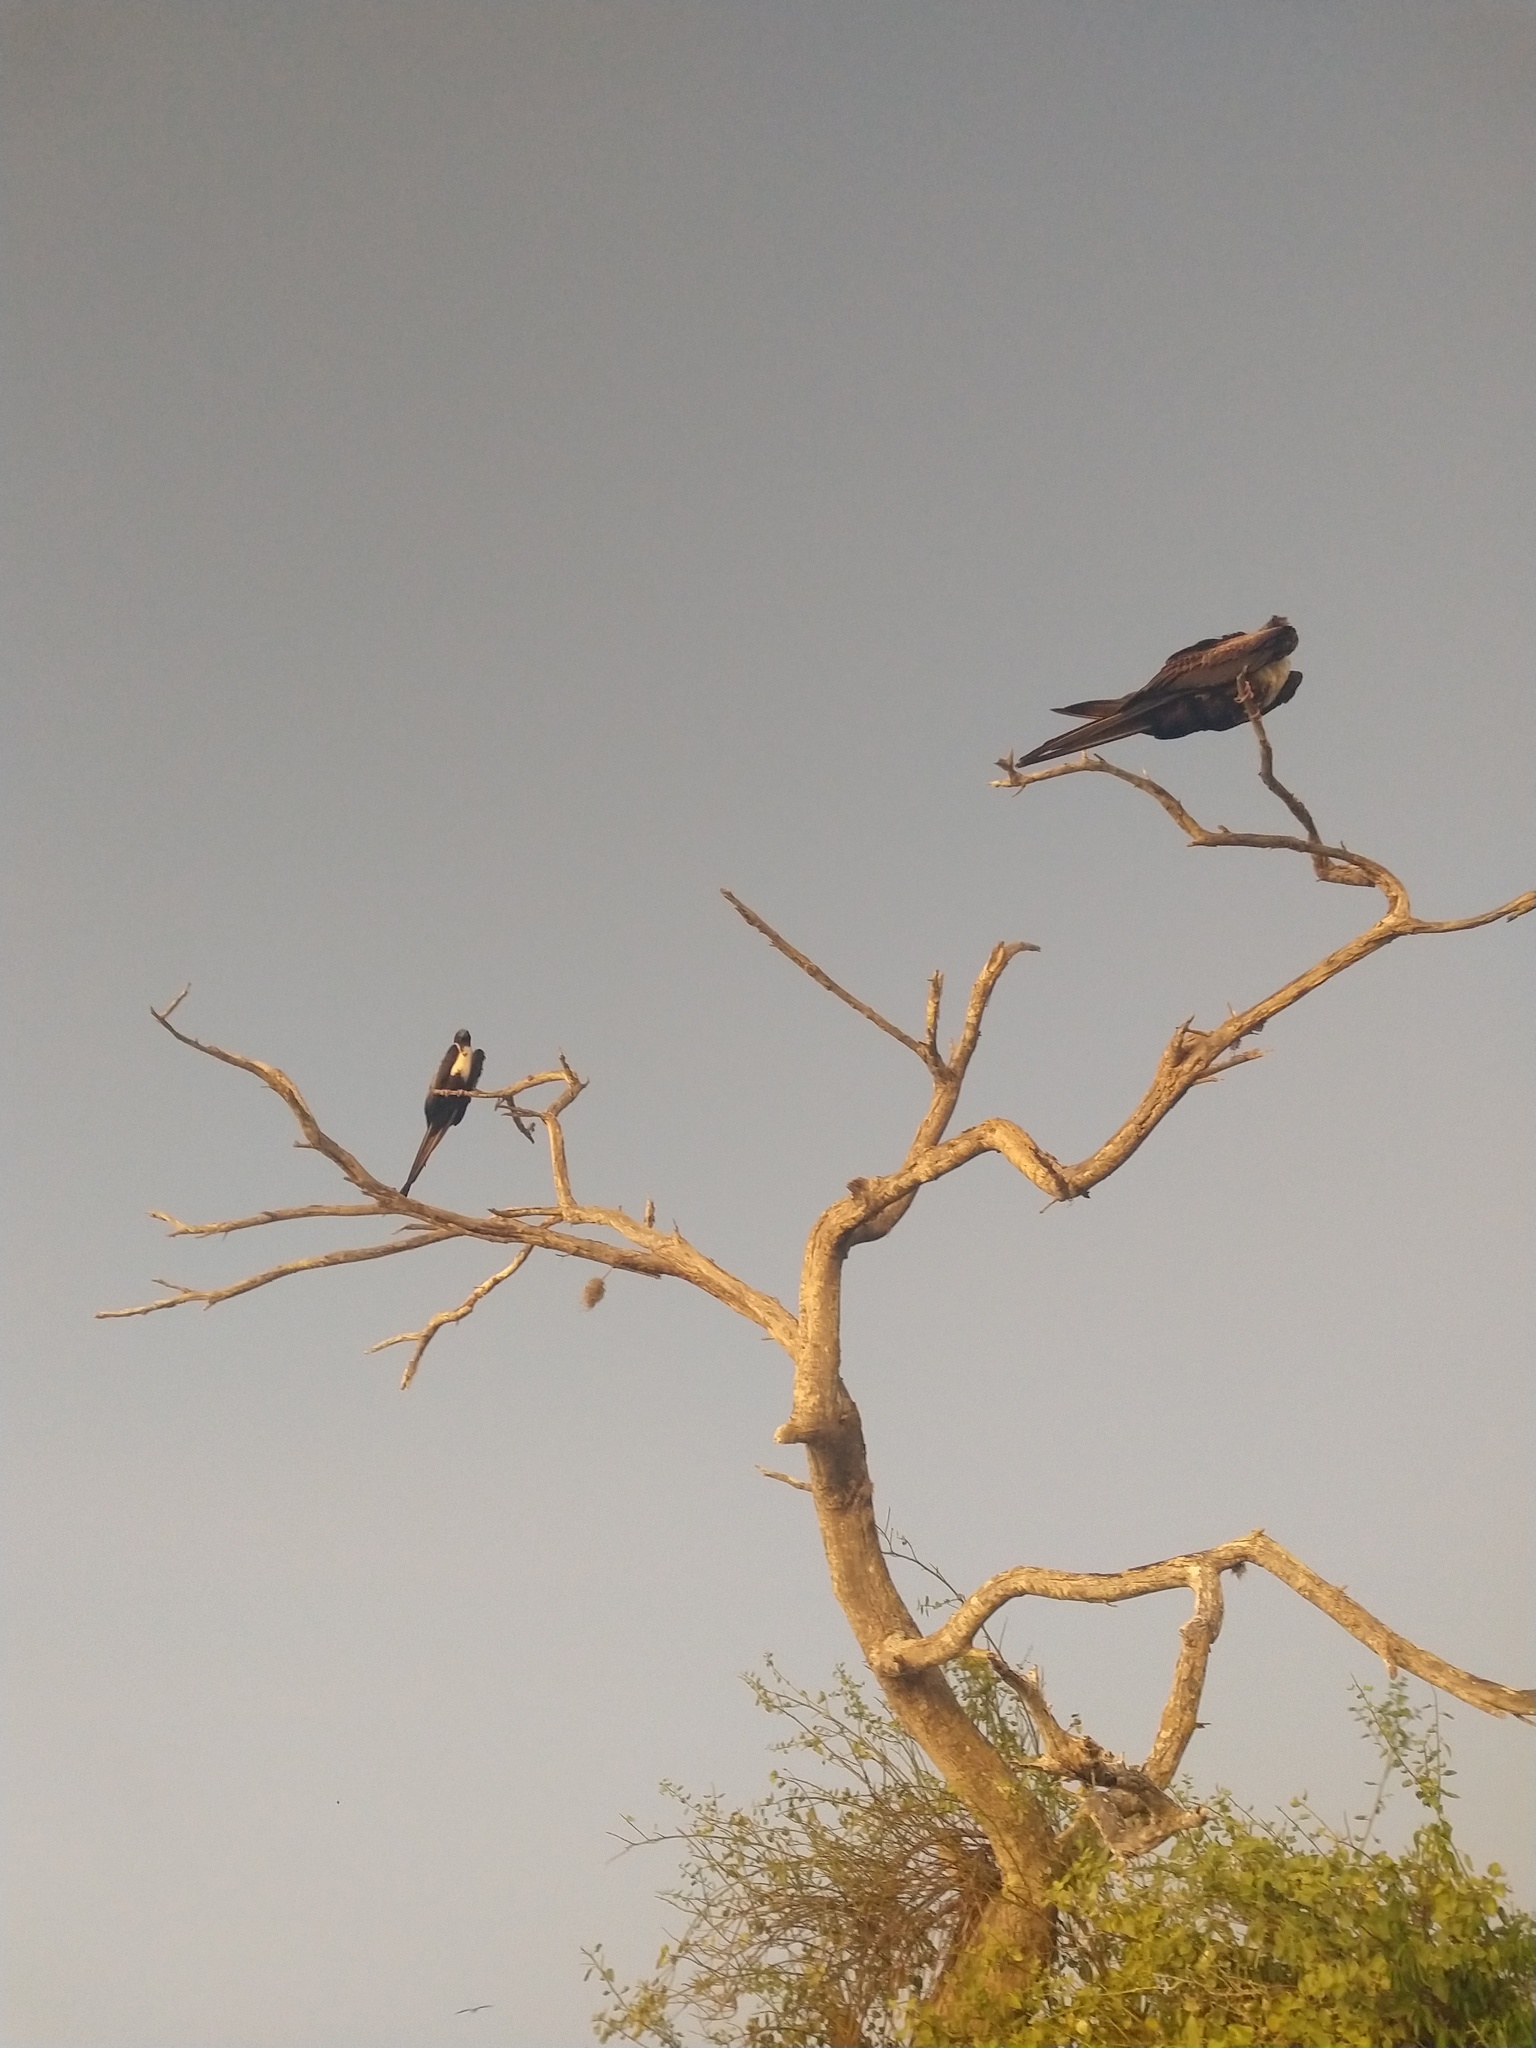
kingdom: Animalia
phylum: Chordata
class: Aves
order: Suliformes
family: Fregatidae
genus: Fregata
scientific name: Fregata magnificens
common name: Magnificent frigatebird
